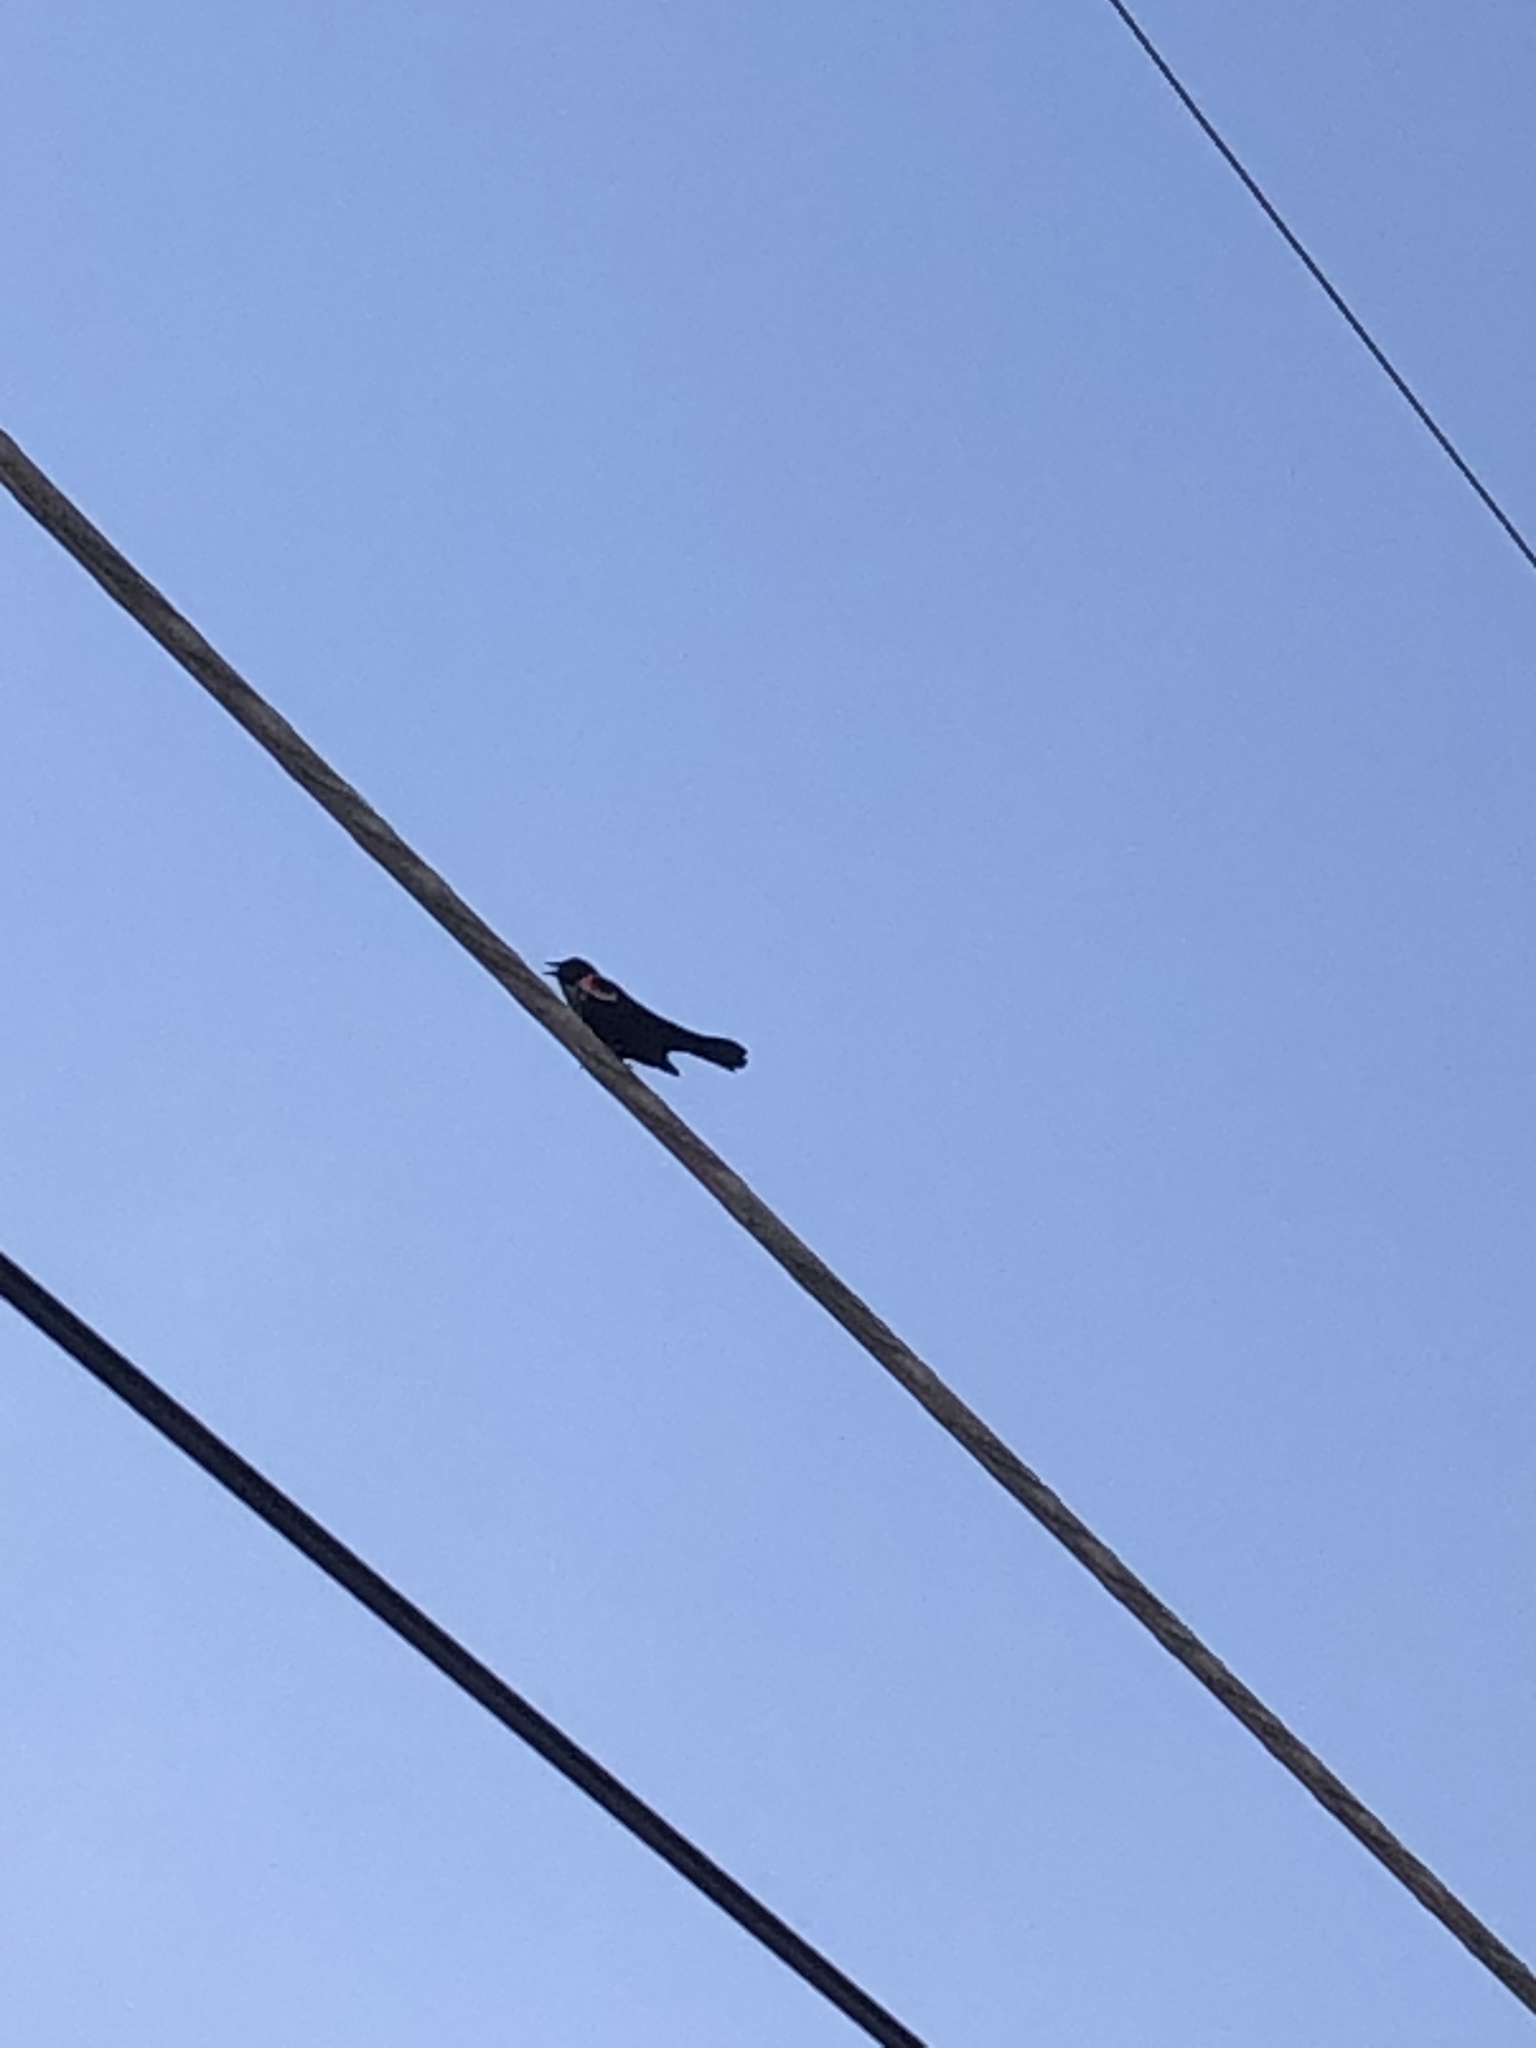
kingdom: Animalia
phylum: Chordata
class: Aves
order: Passeriformes
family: Icteridae
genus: Agelaius
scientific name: Agelaius phoeniceus
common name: Red-winged blackbird
